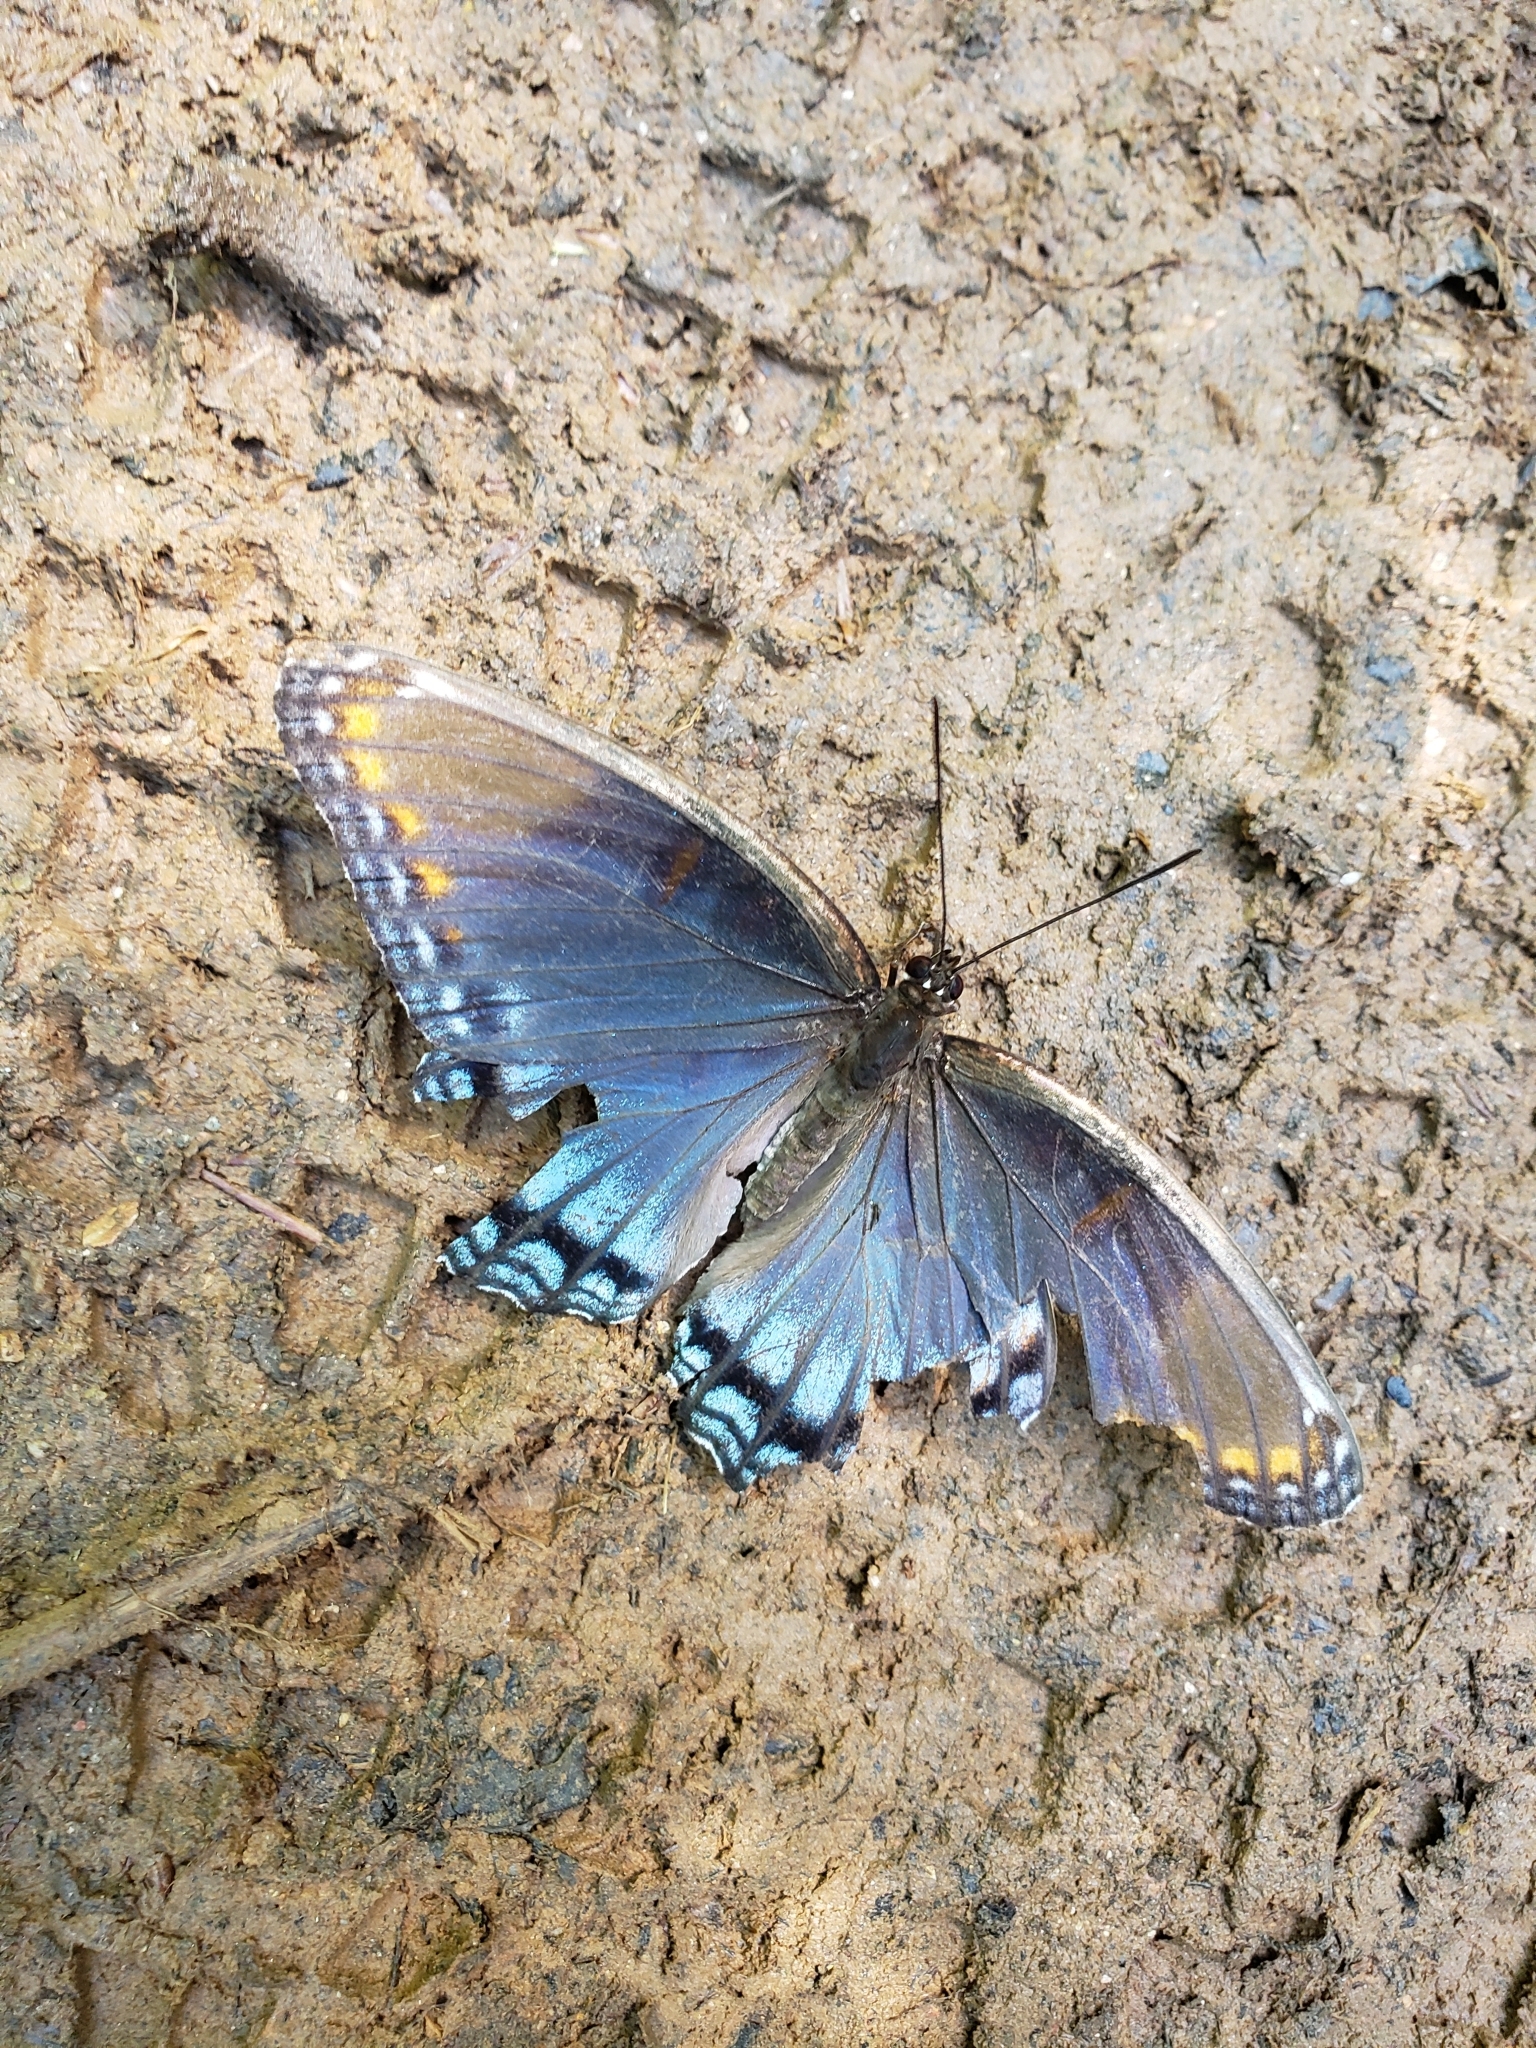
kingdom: Animalia
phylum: Arthropoda
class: Insecta
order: Lepidoptera
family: Nymphalidae
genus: Limenitis
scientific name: Limenitis astyanax
